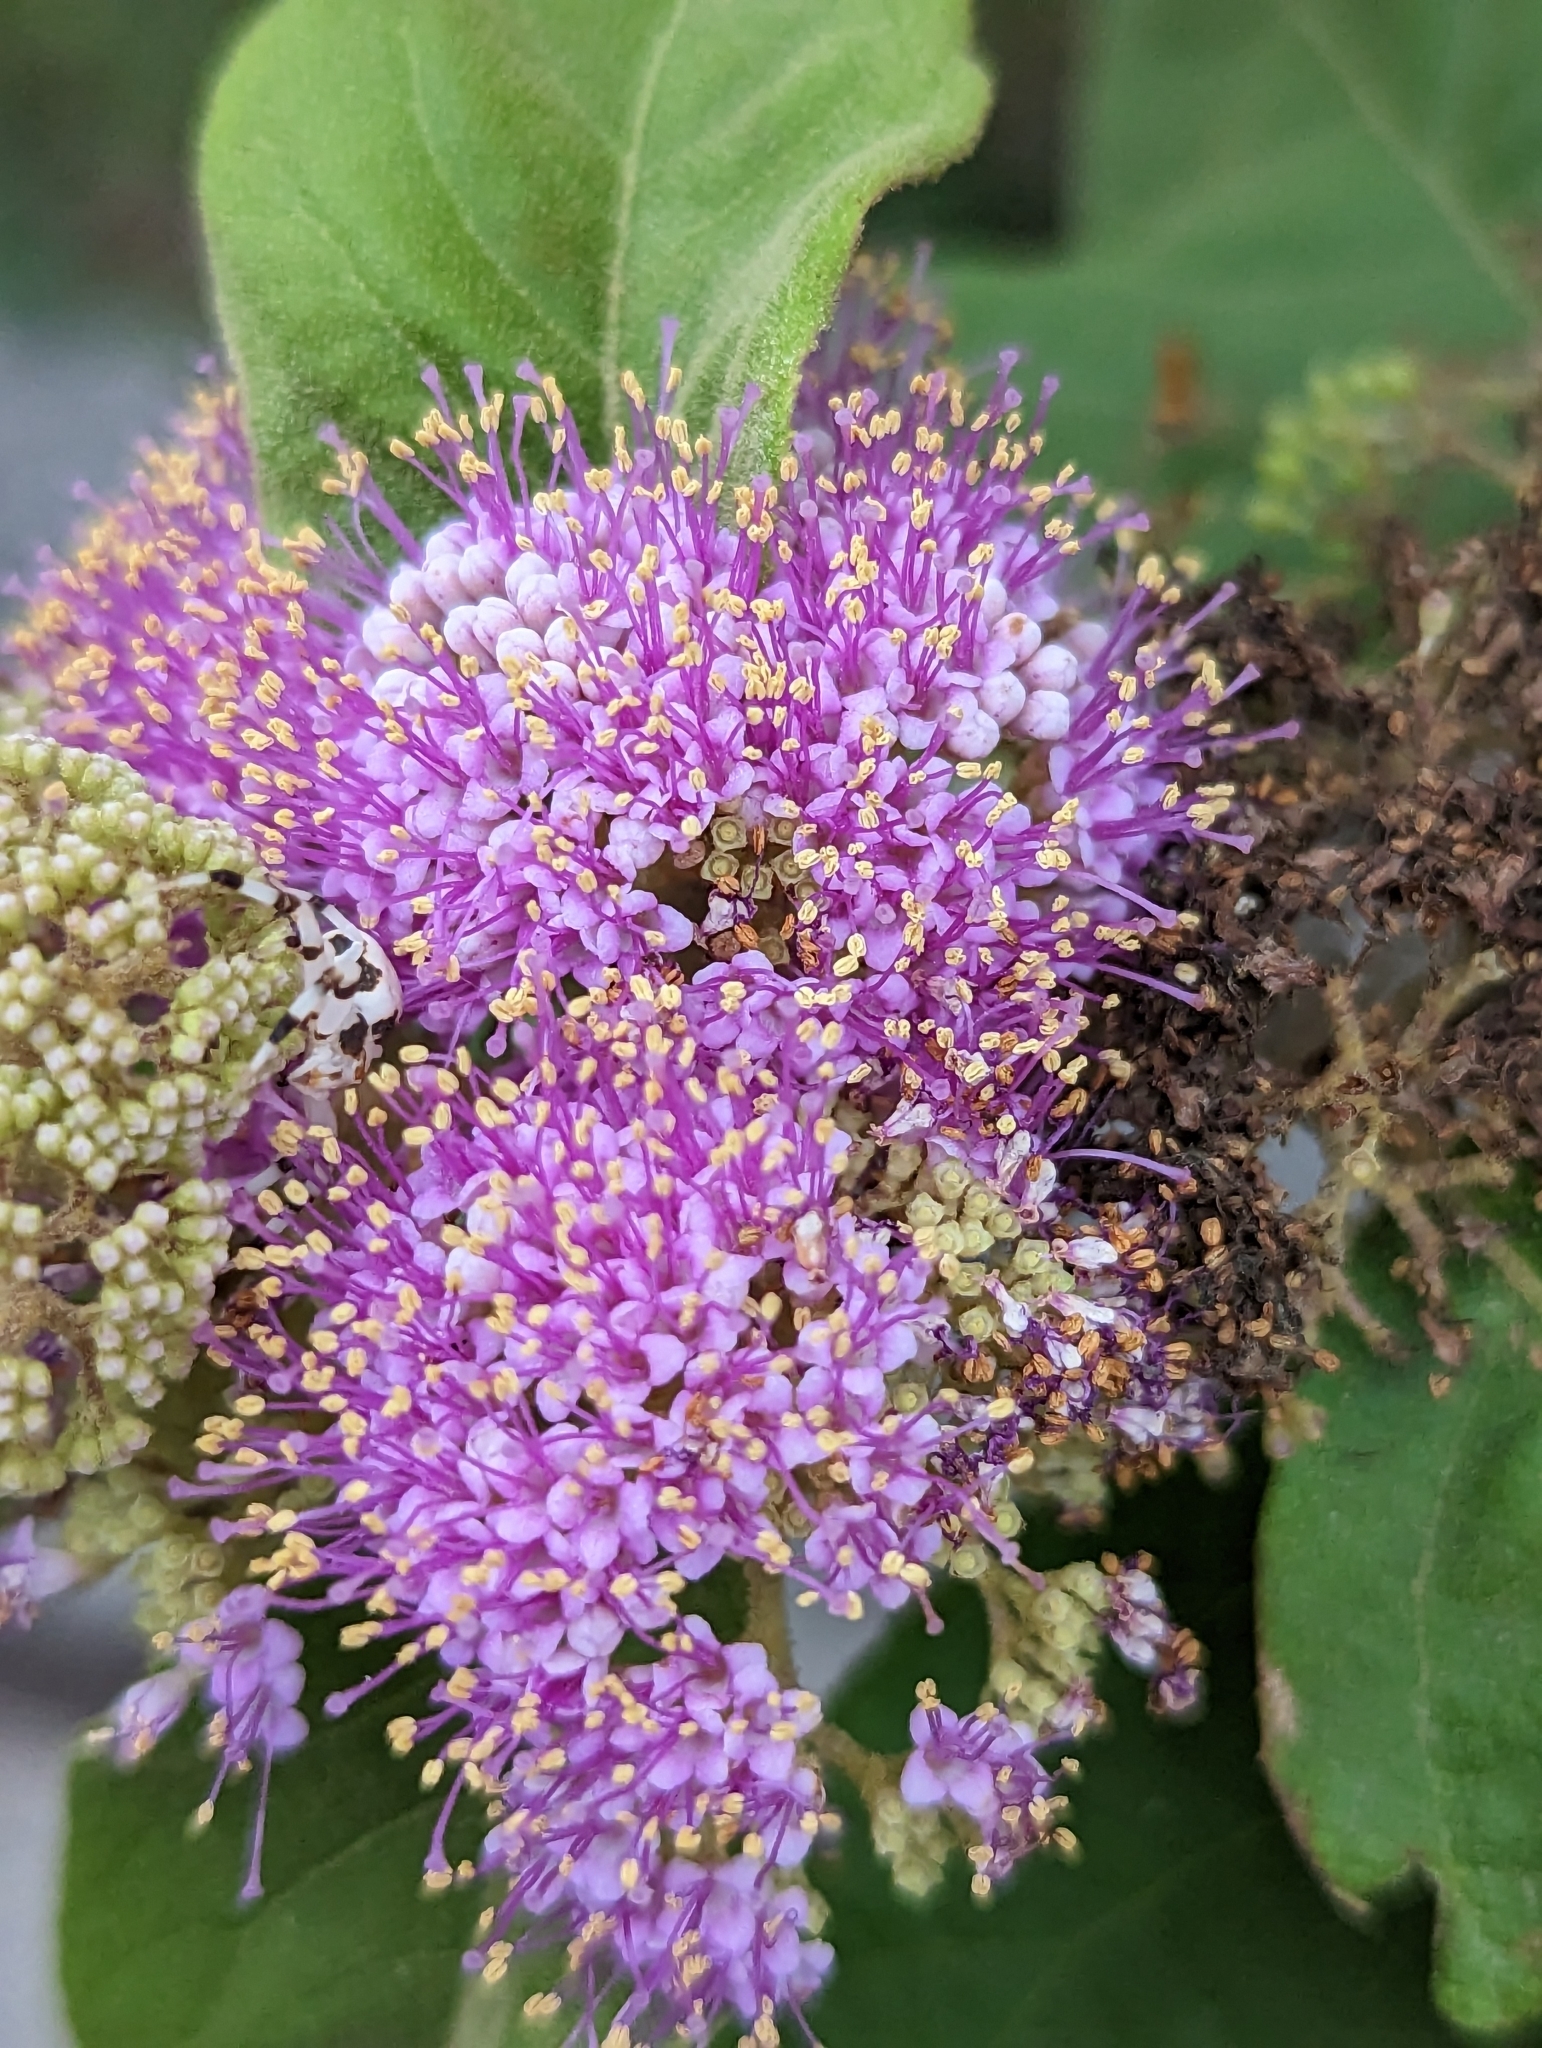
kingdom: Plantae
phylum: Tracheophyta
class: Magnoliopsida
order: Lamiales
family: Lamiaceae
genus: Callicarpa
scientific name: Callicarpa pedunculata
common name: Velvetleaf
